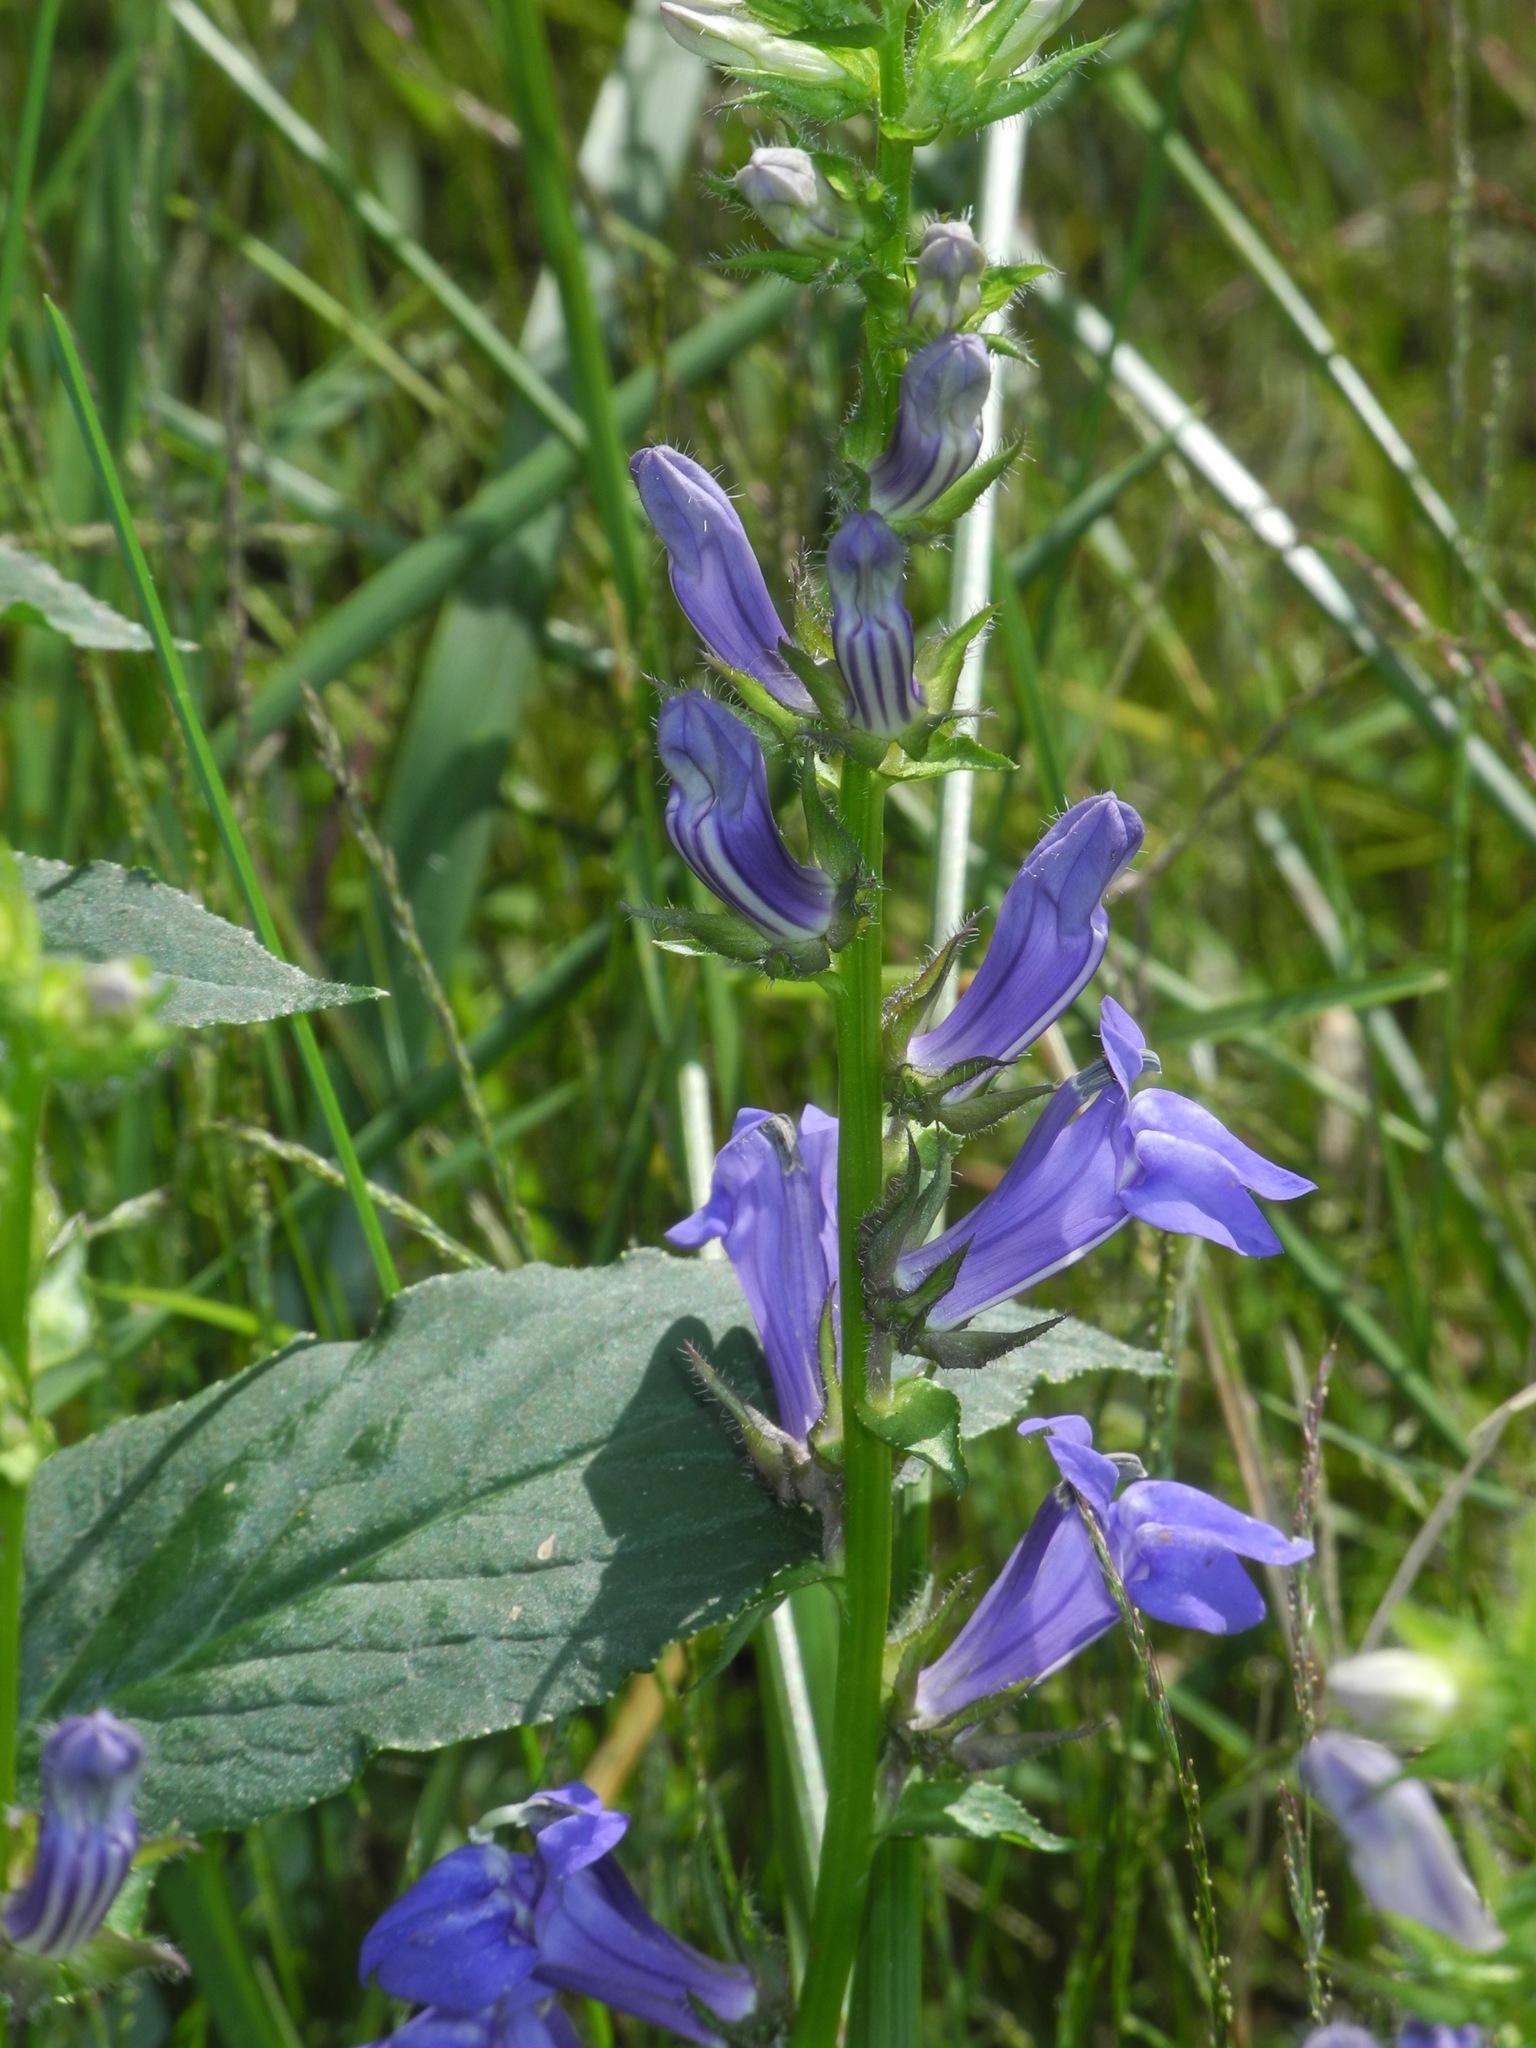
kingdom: Plantae
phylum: Tracheophyta
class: Magnoliopsida
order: Asterales
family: Campanulaceae
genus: Lobelia
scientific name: Lobelia siphilitica
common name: Great lobelia
